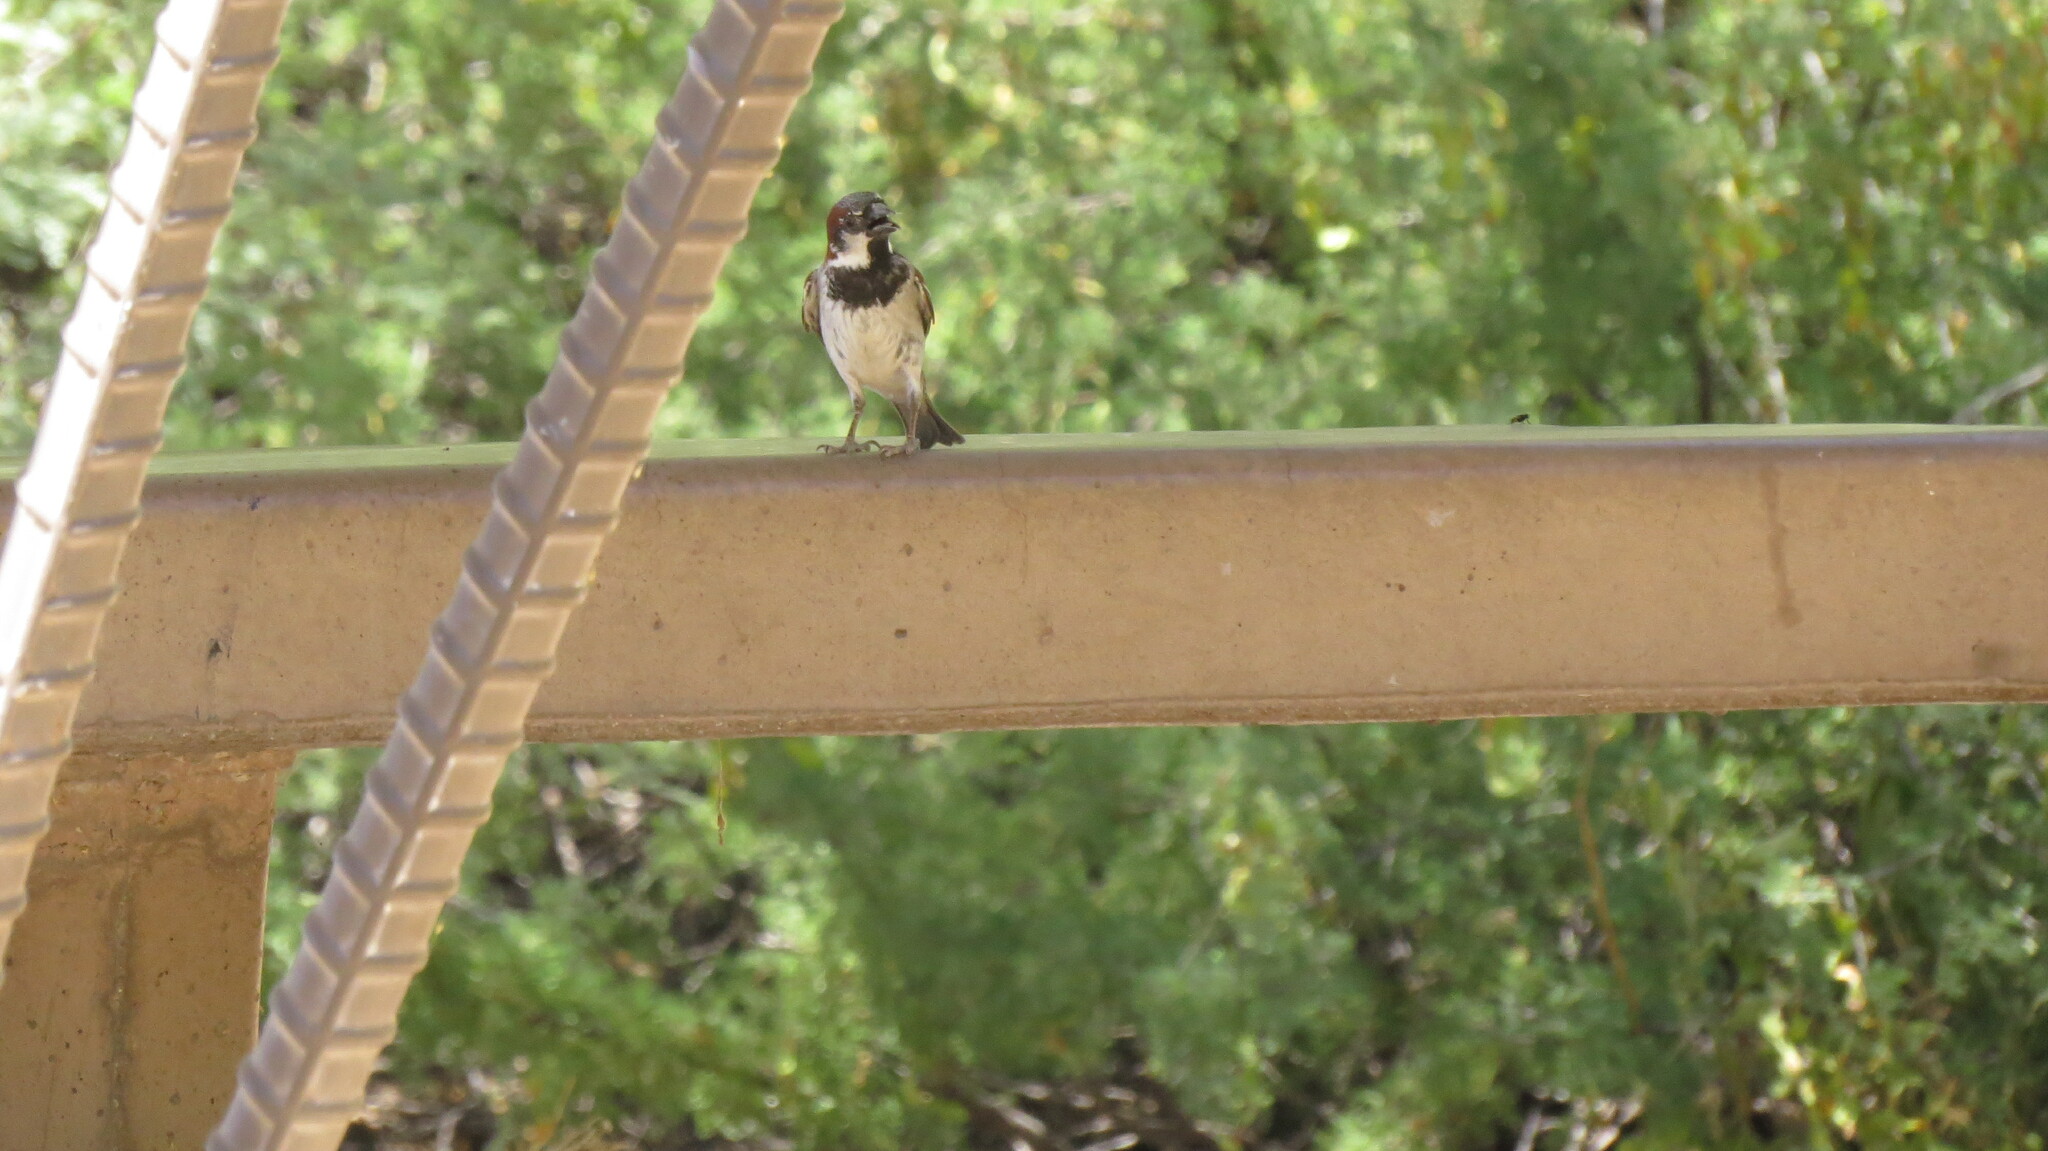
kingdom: Animalia
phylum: Chordata
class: Aves
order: Passeriformes
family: Passeridae
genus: Passer
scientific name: Passer domesticus
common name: House sparrow
